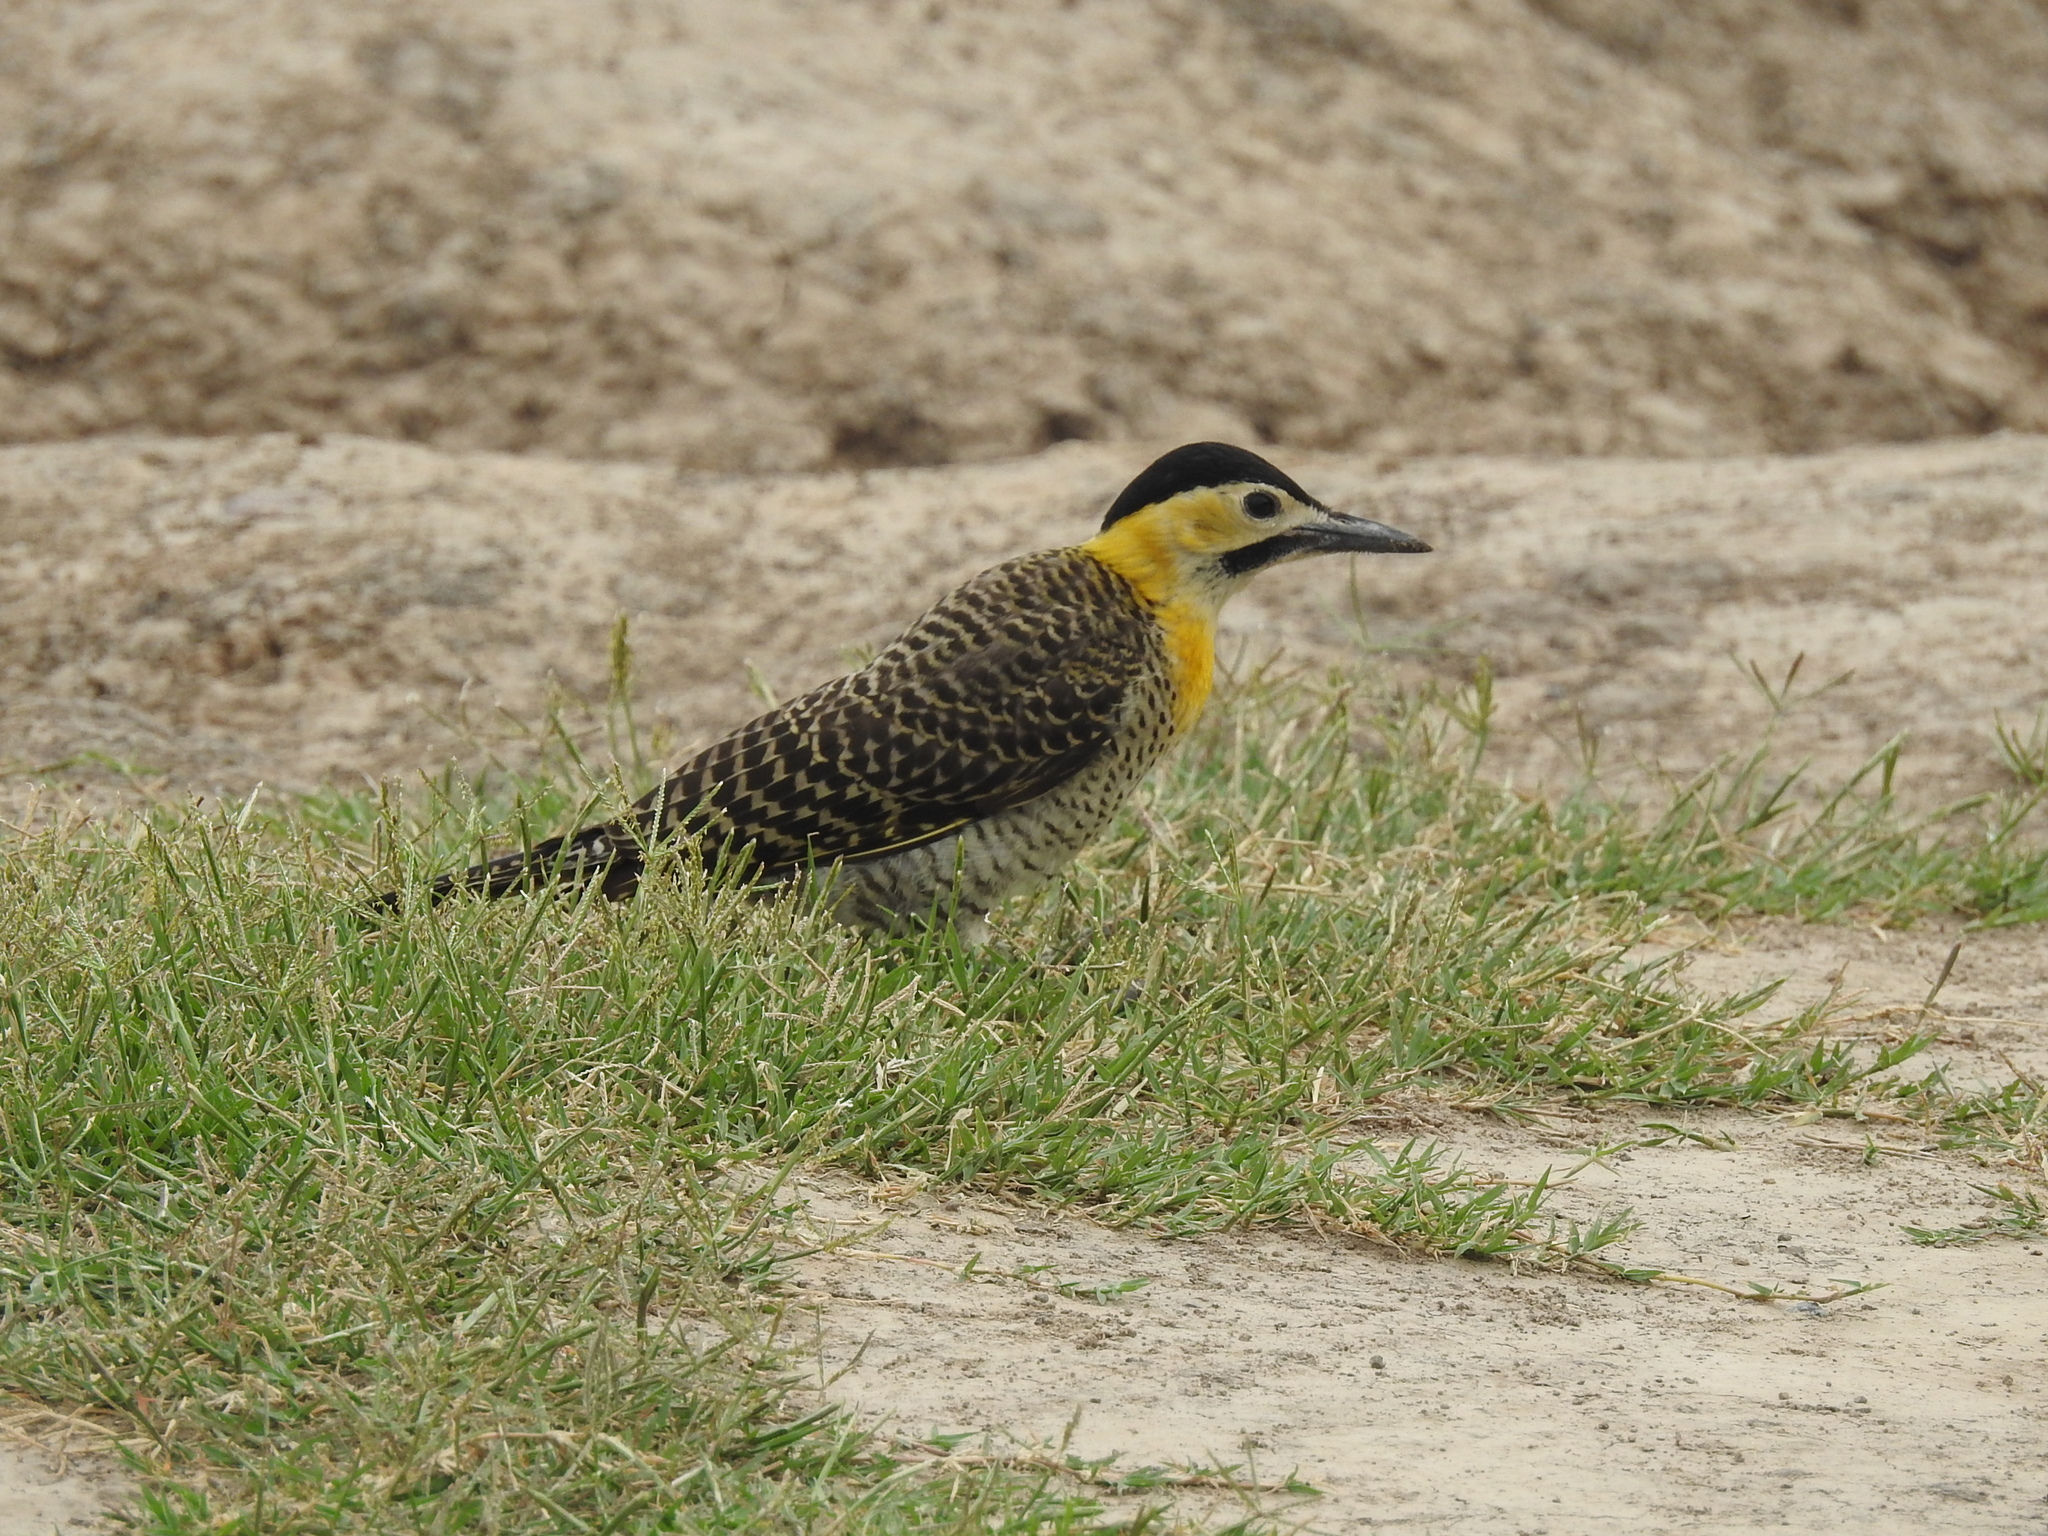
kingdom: Animalia
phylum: Chordata
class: Aves
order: Piciformes
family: Picidae
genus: Colaptes
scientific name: Colaptes campestris
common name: Campo flicker
